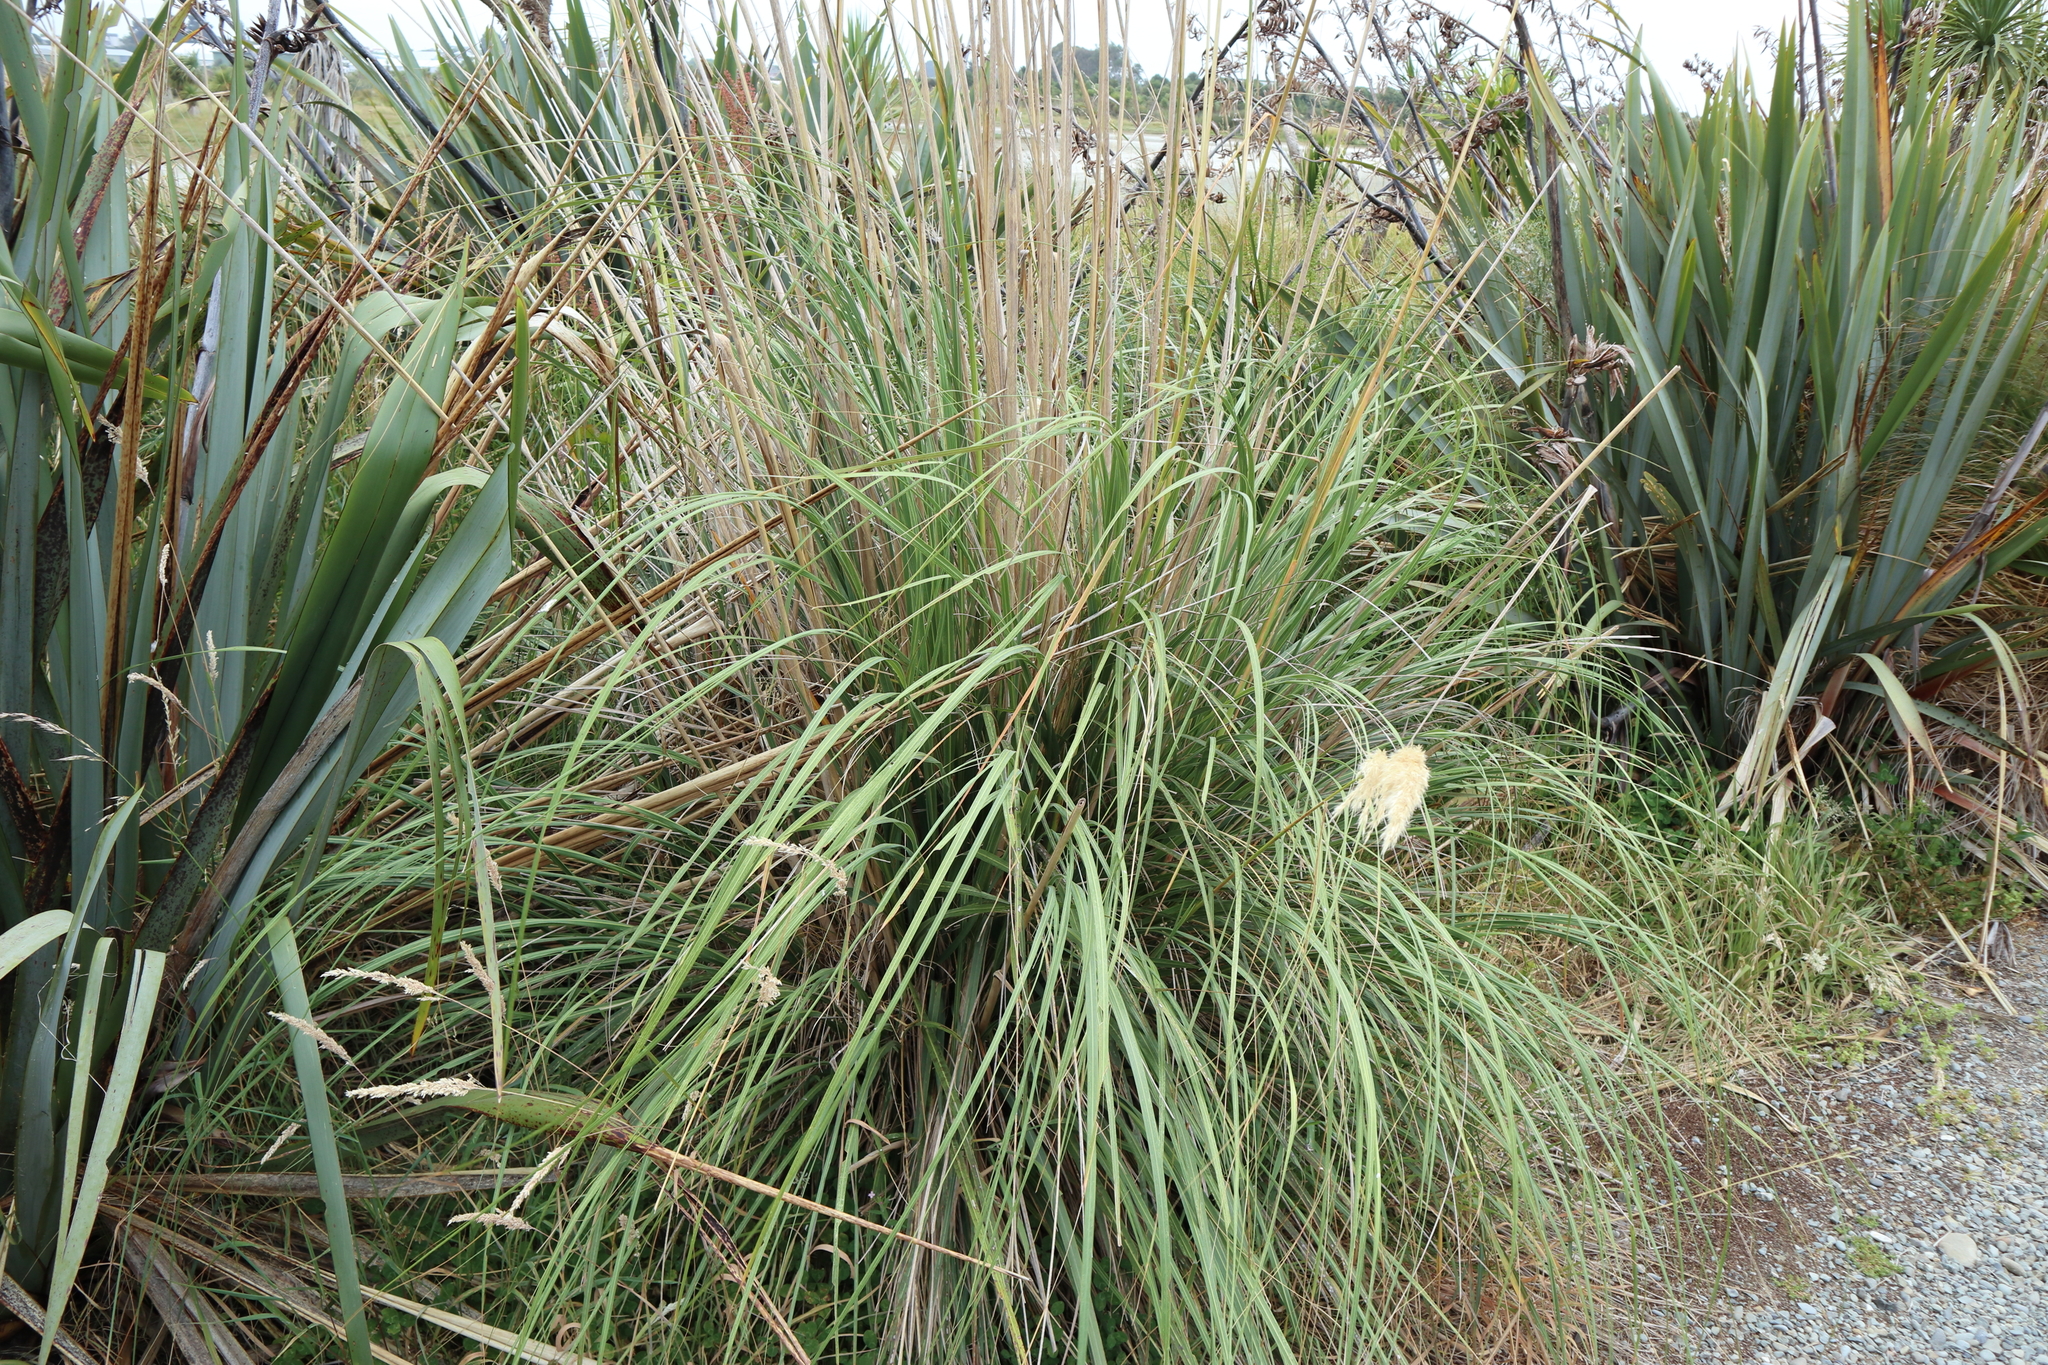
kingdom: Plantae
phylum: Tracheophyta
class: Liliopsida
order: Poales
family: Poaceae
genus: Austroderia
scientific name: Austroderia richardii
